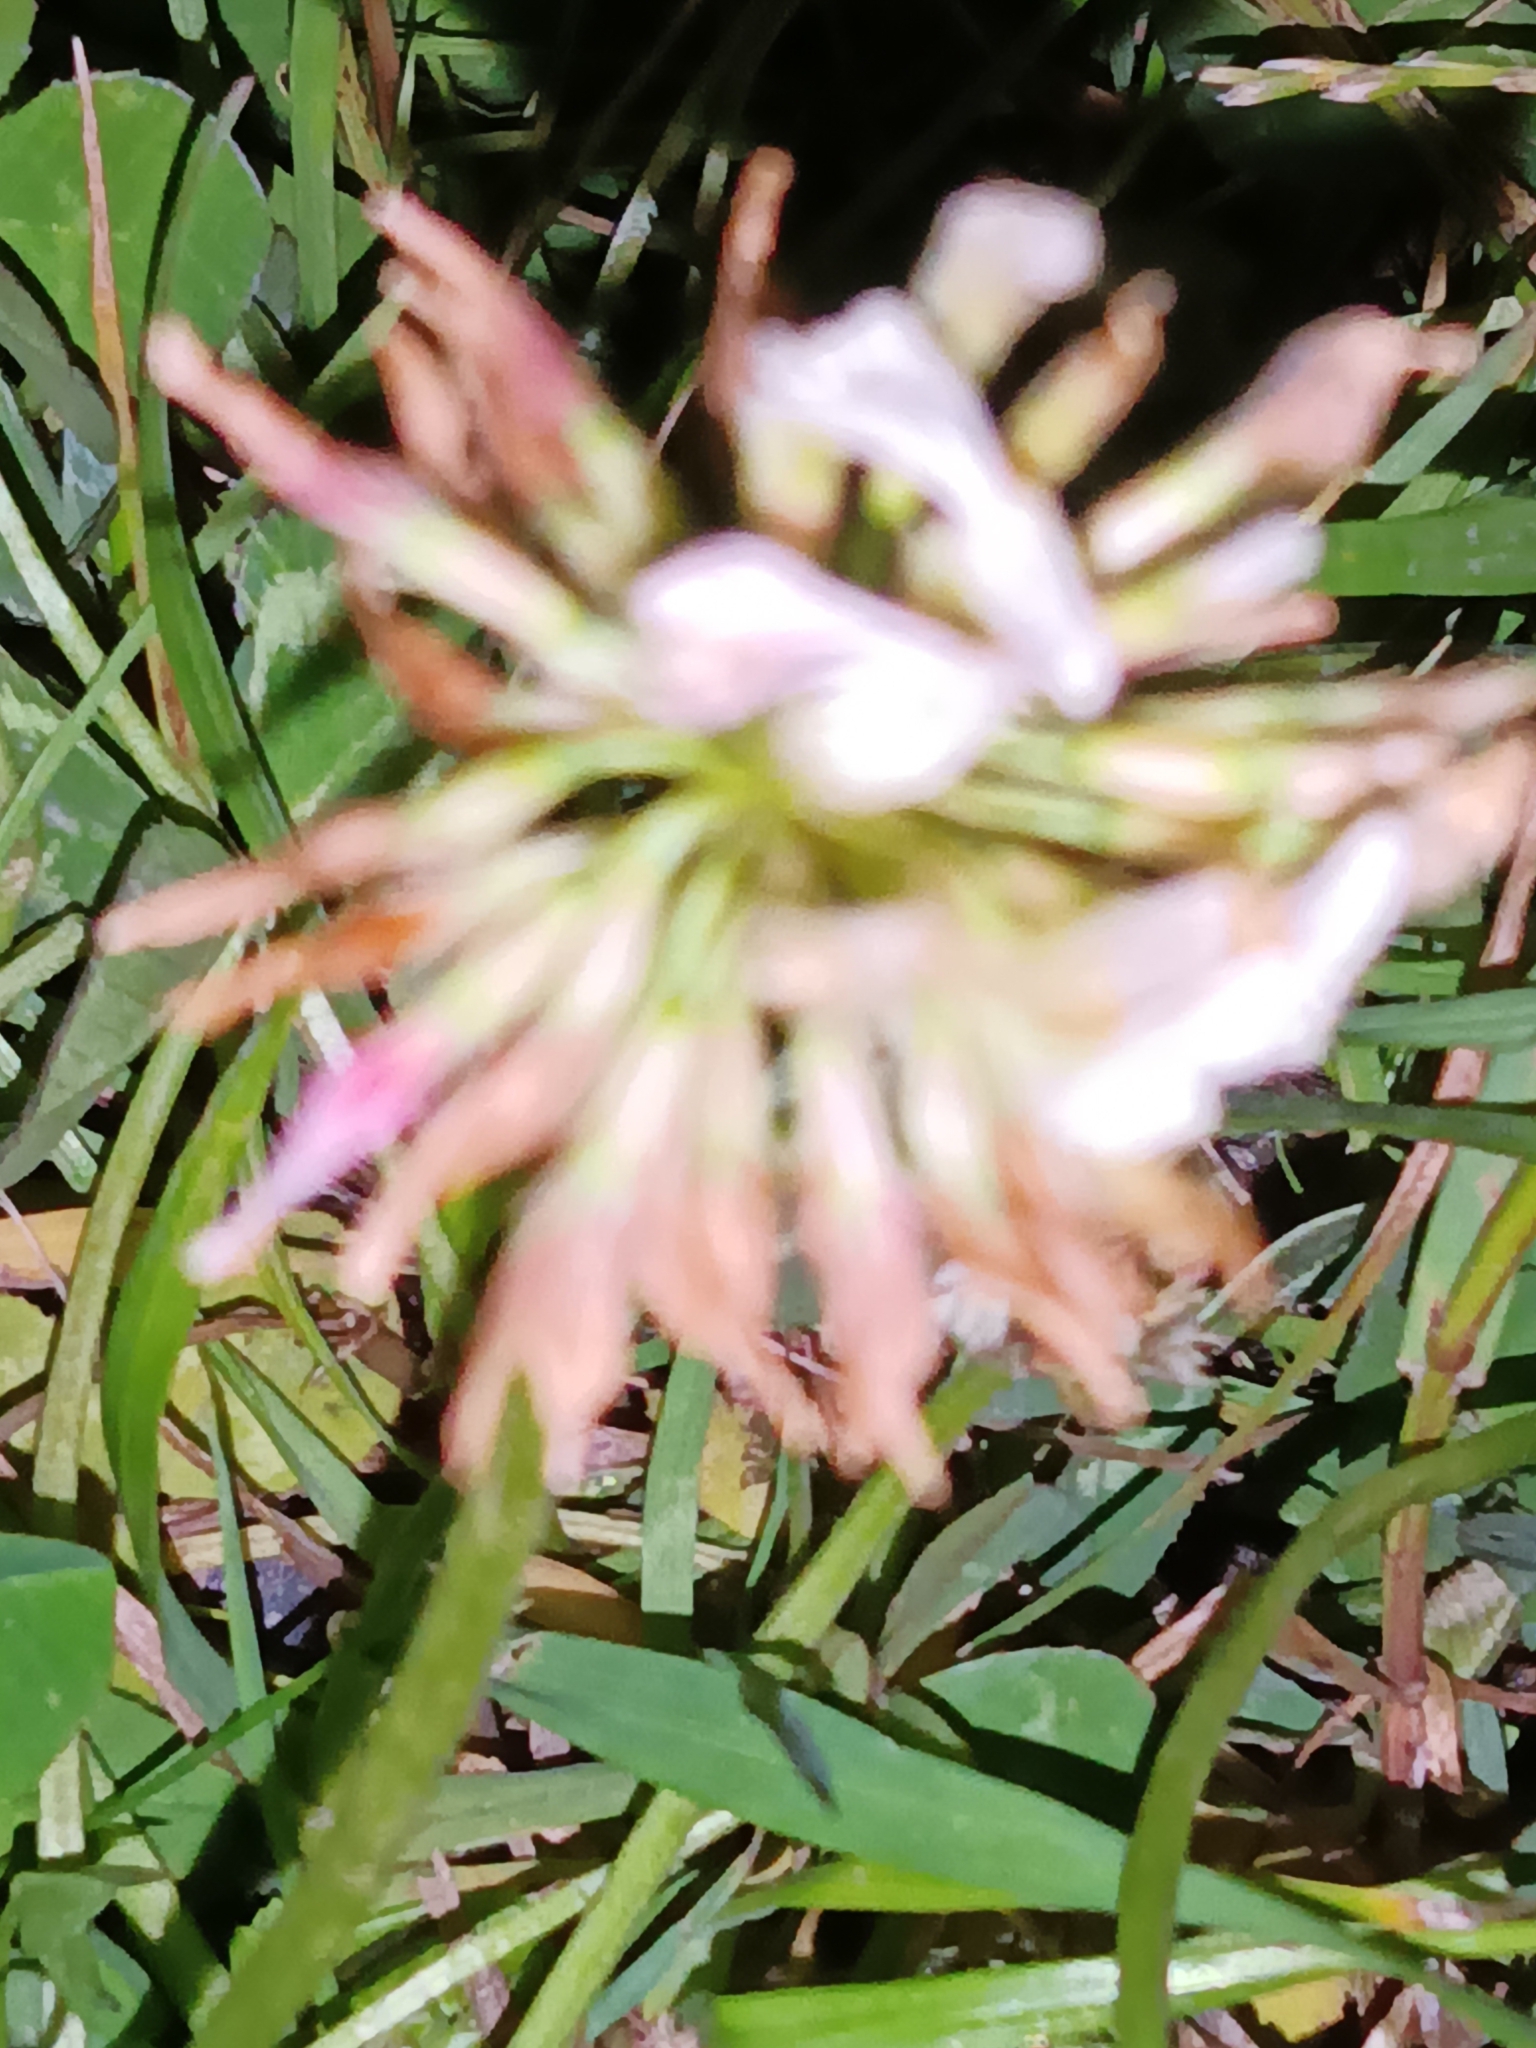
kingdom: Plantae
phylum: Tracheophyta
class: Magnoliopsida
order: Fabales
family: Fabaceae
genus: Trifolium
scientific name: Trifolium repens
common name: White clover
